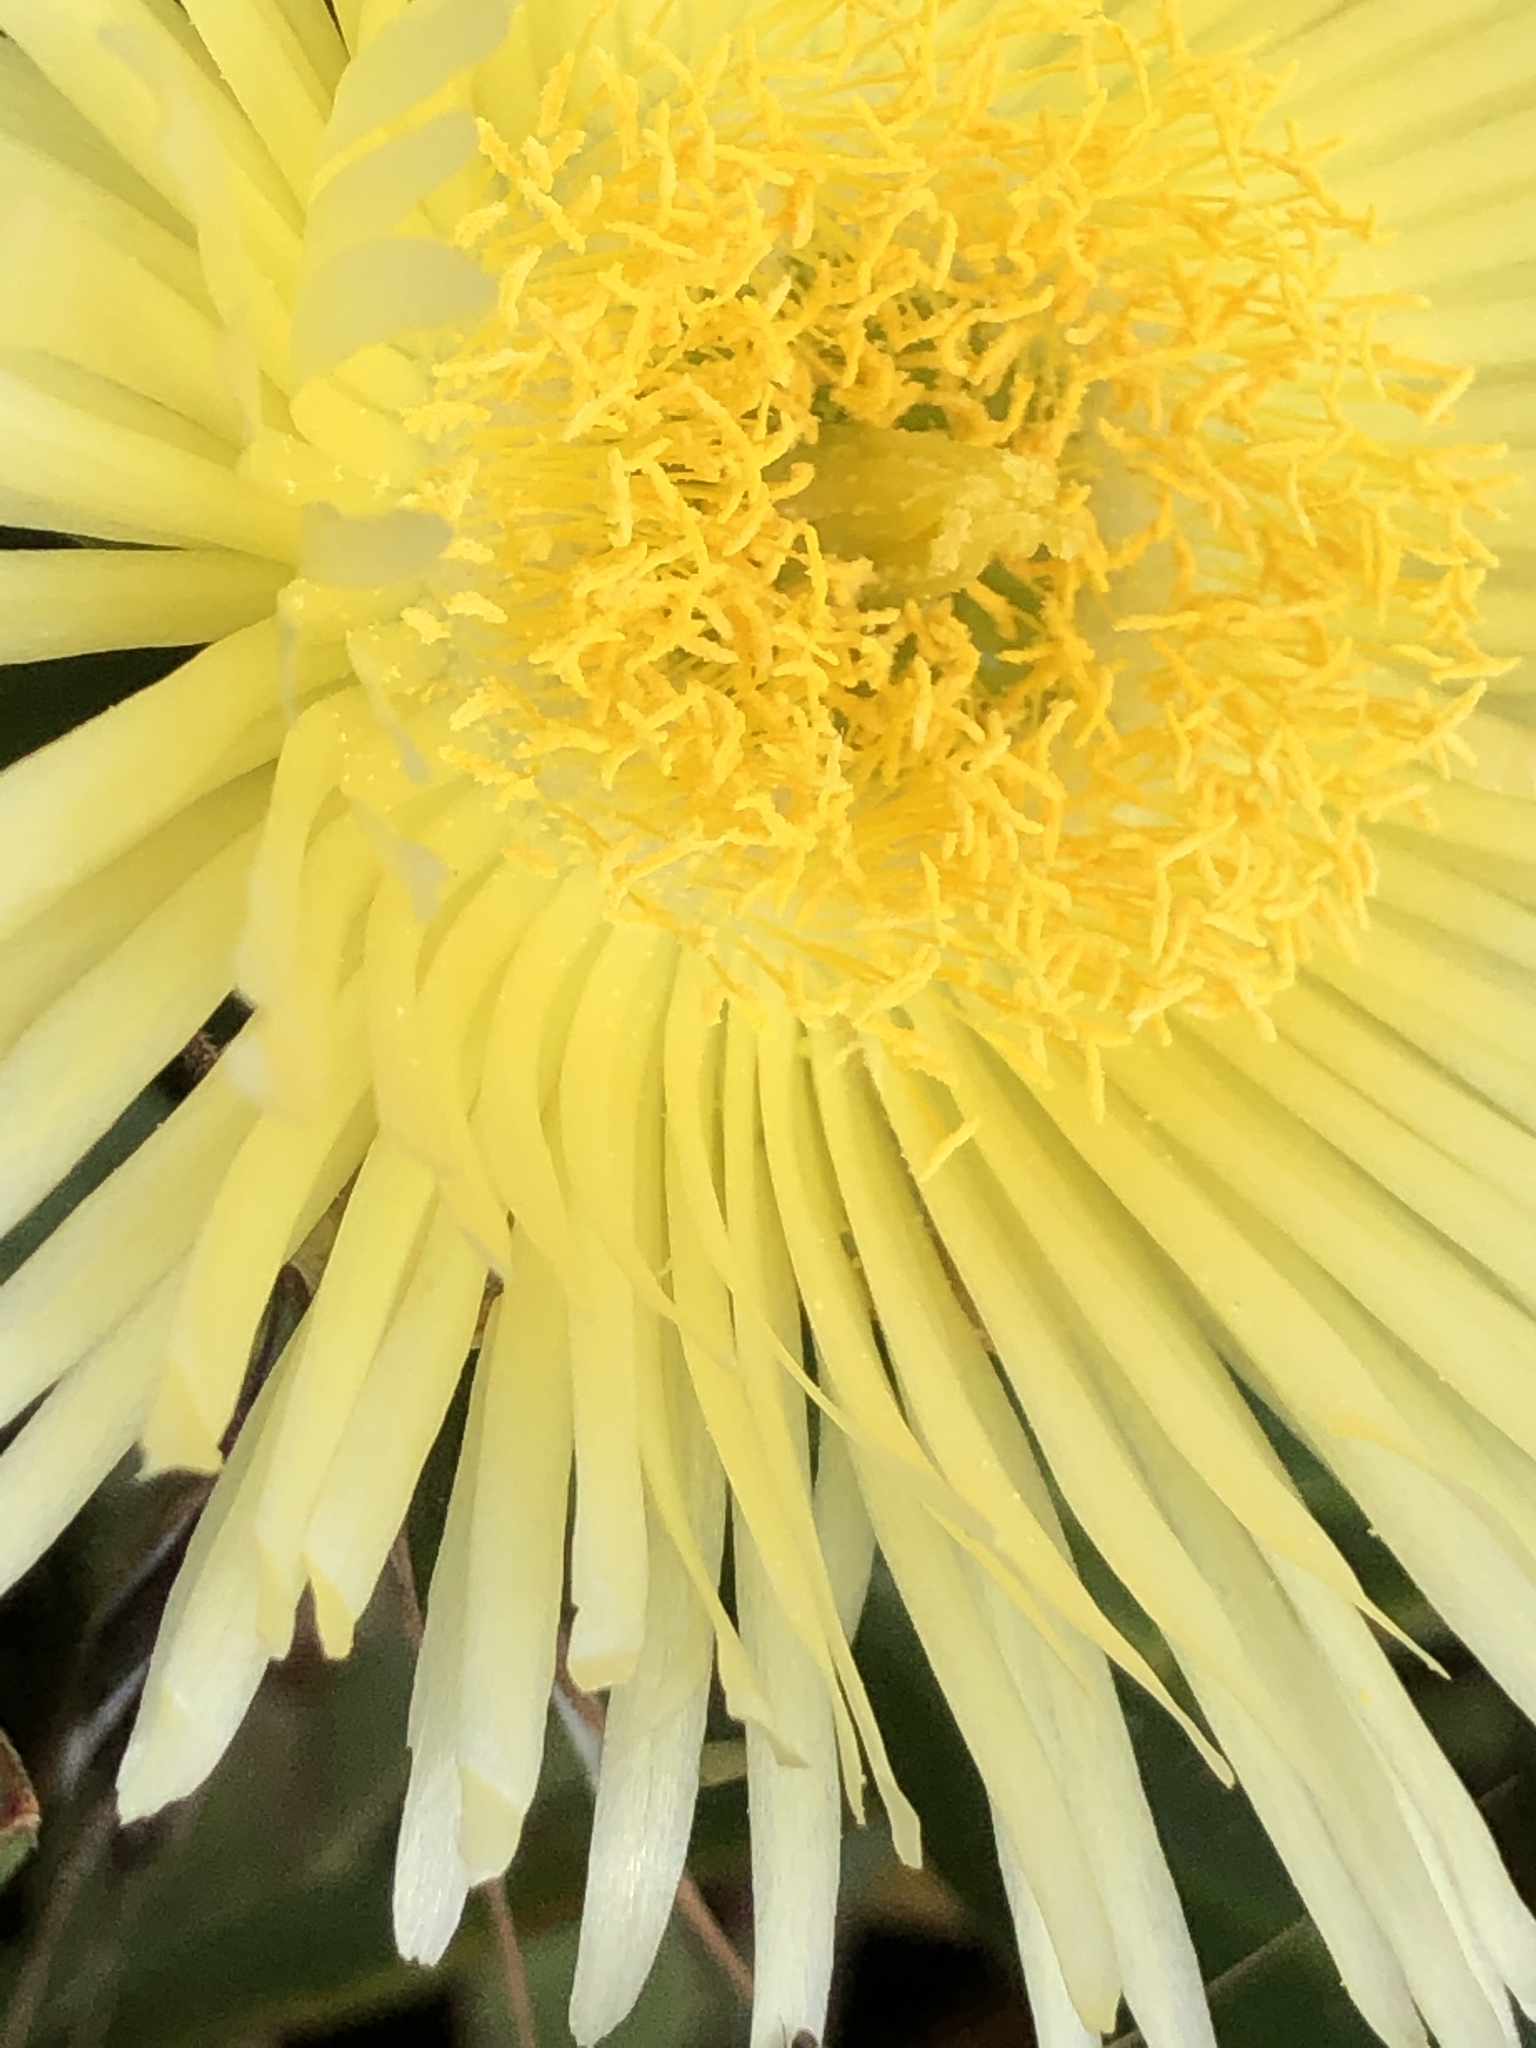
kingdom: Plantae
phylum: Tracheophyta
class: Magnoliopsida
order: Caryophyllales
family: Aizoaceae
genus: Carpobrotus
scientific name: Carpobrotus edulis
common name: Hottentot-fig
